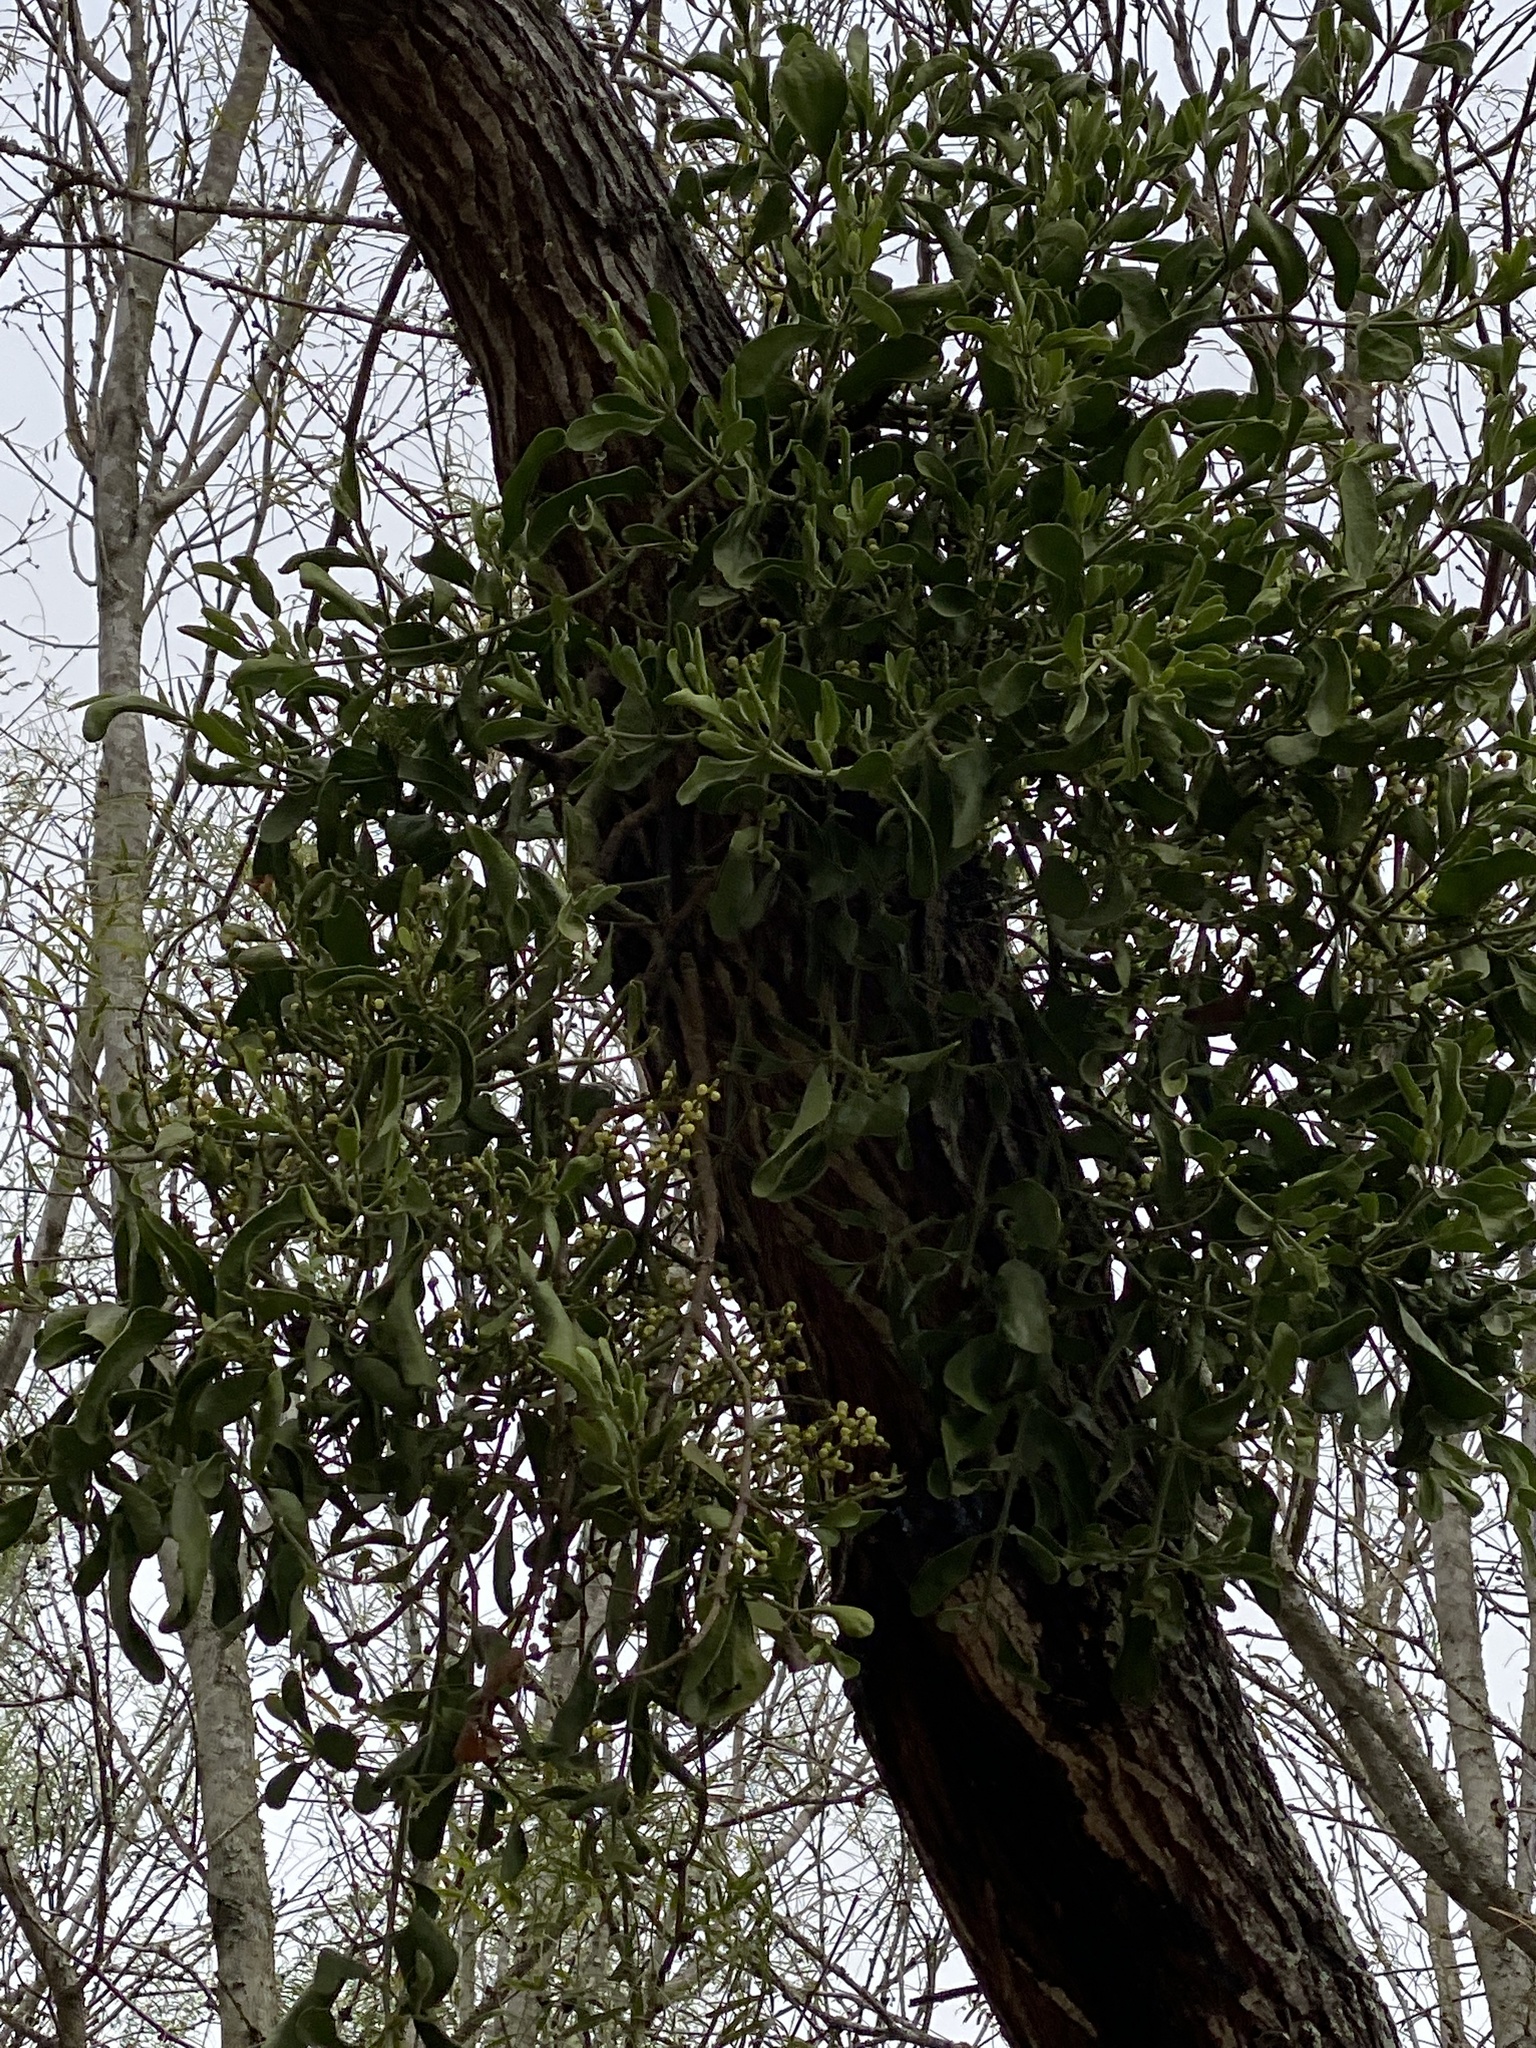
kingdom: Plantae
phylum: Tracheophyta
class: Magnoliopsida
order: Santalales
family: Viscaceae
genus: Phoradendron
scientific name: Phoradendron leucarpum
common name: Pacific mistletoe
